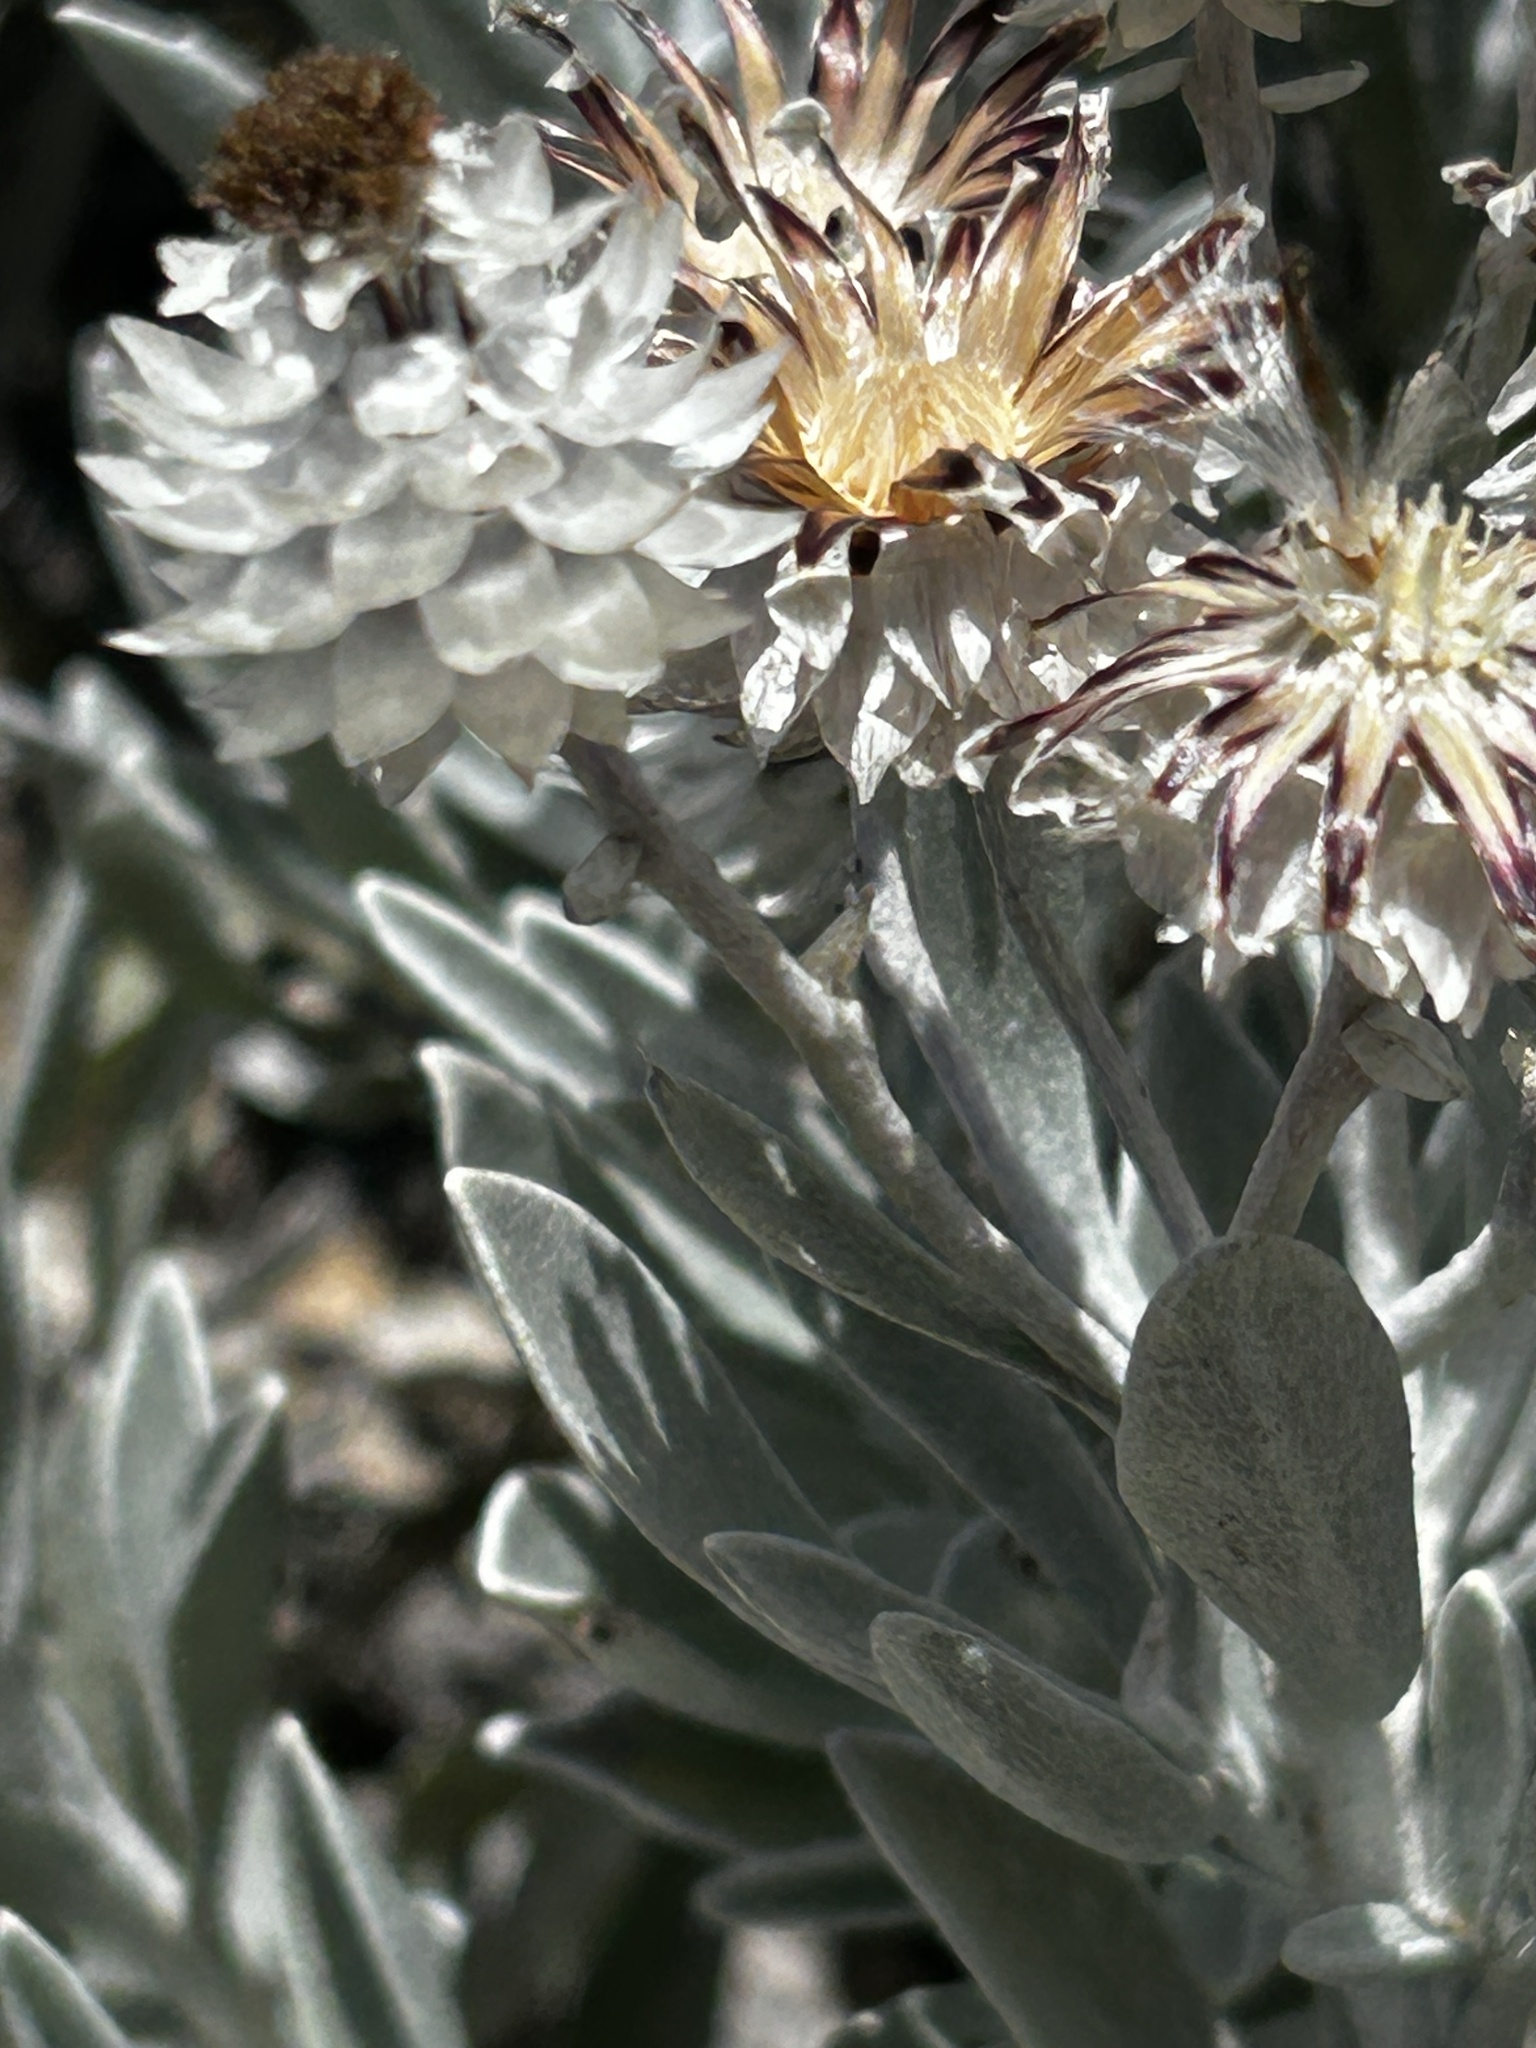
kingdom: Plantae
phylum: Tracheophyta
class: Magnoliopsida
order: Asterales
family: Asteraceae
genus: Syncarpha
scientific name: Syncarpha argyropsis
